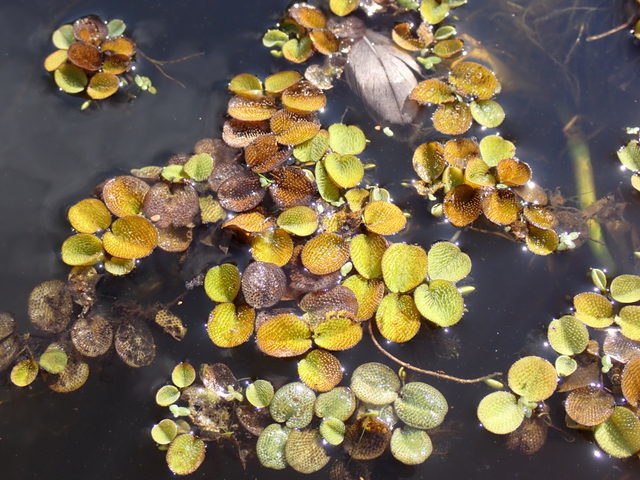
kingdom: Plantae
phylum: Tracheophyta
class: Polypodiopsida
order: Salviniales
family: Salviniaceae
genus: Salvinia
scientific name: Salvinia minima
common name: Water spangles
